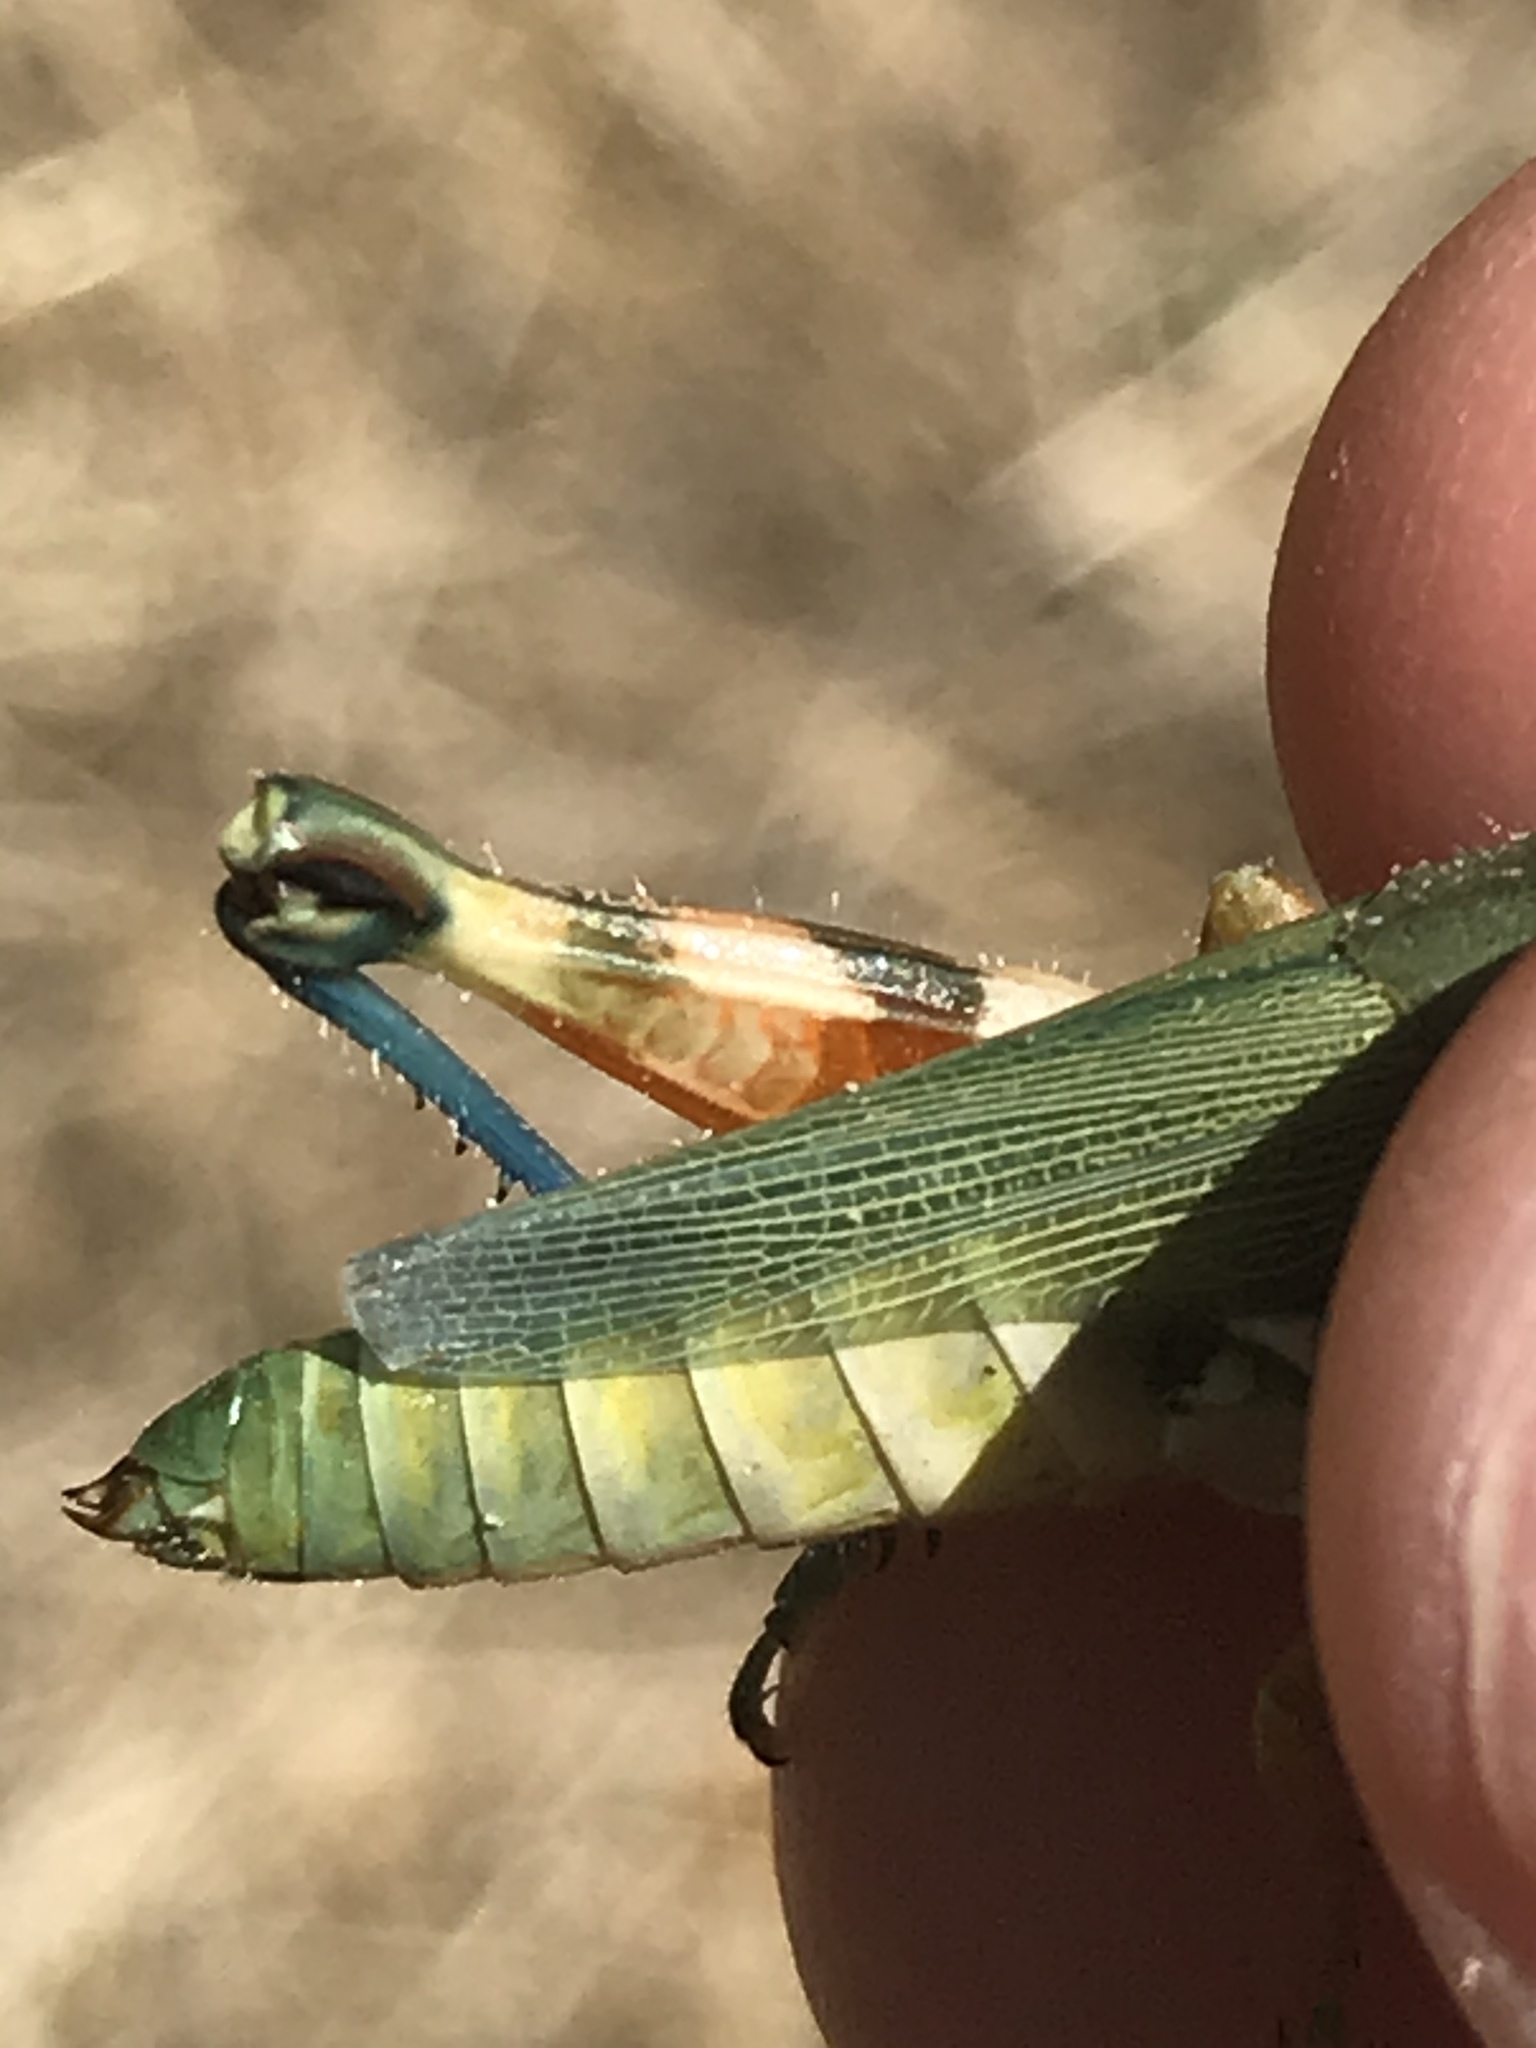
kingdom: Animalia
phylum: Arthropoda
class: Insecta
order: Orthoptera
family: Acrididae
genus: Chloroplus
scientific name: Chloroplus cactocaetes
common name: Texas cholla grasshopper
